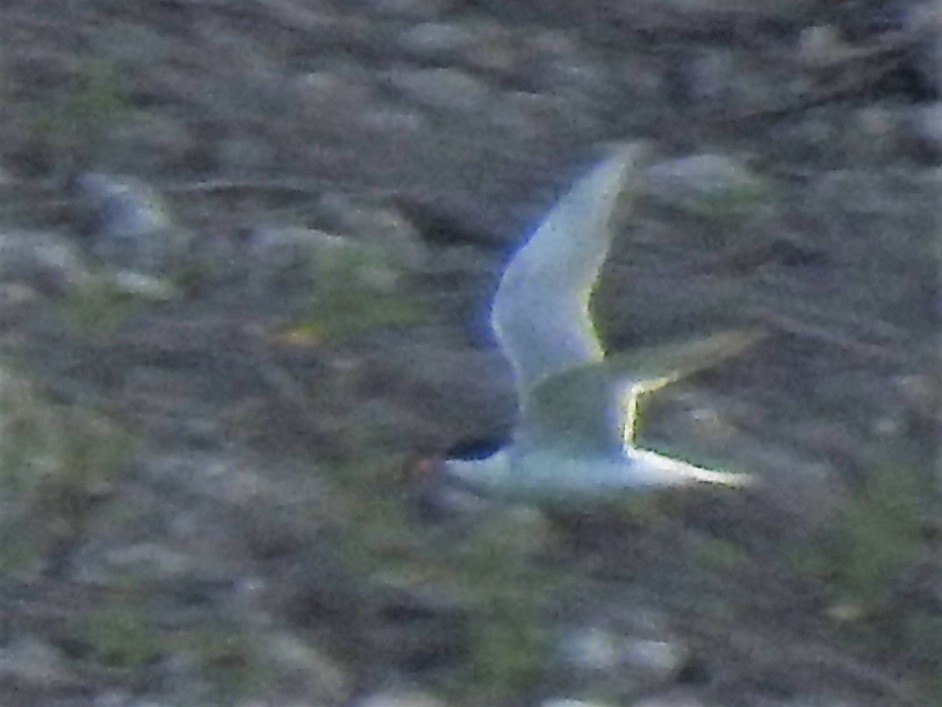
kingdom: Animalia
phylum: Chordata
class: Aves
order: Charadriiformes
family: Laridae
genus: Sterna
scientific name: Sterna hirundo
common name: Common tern
